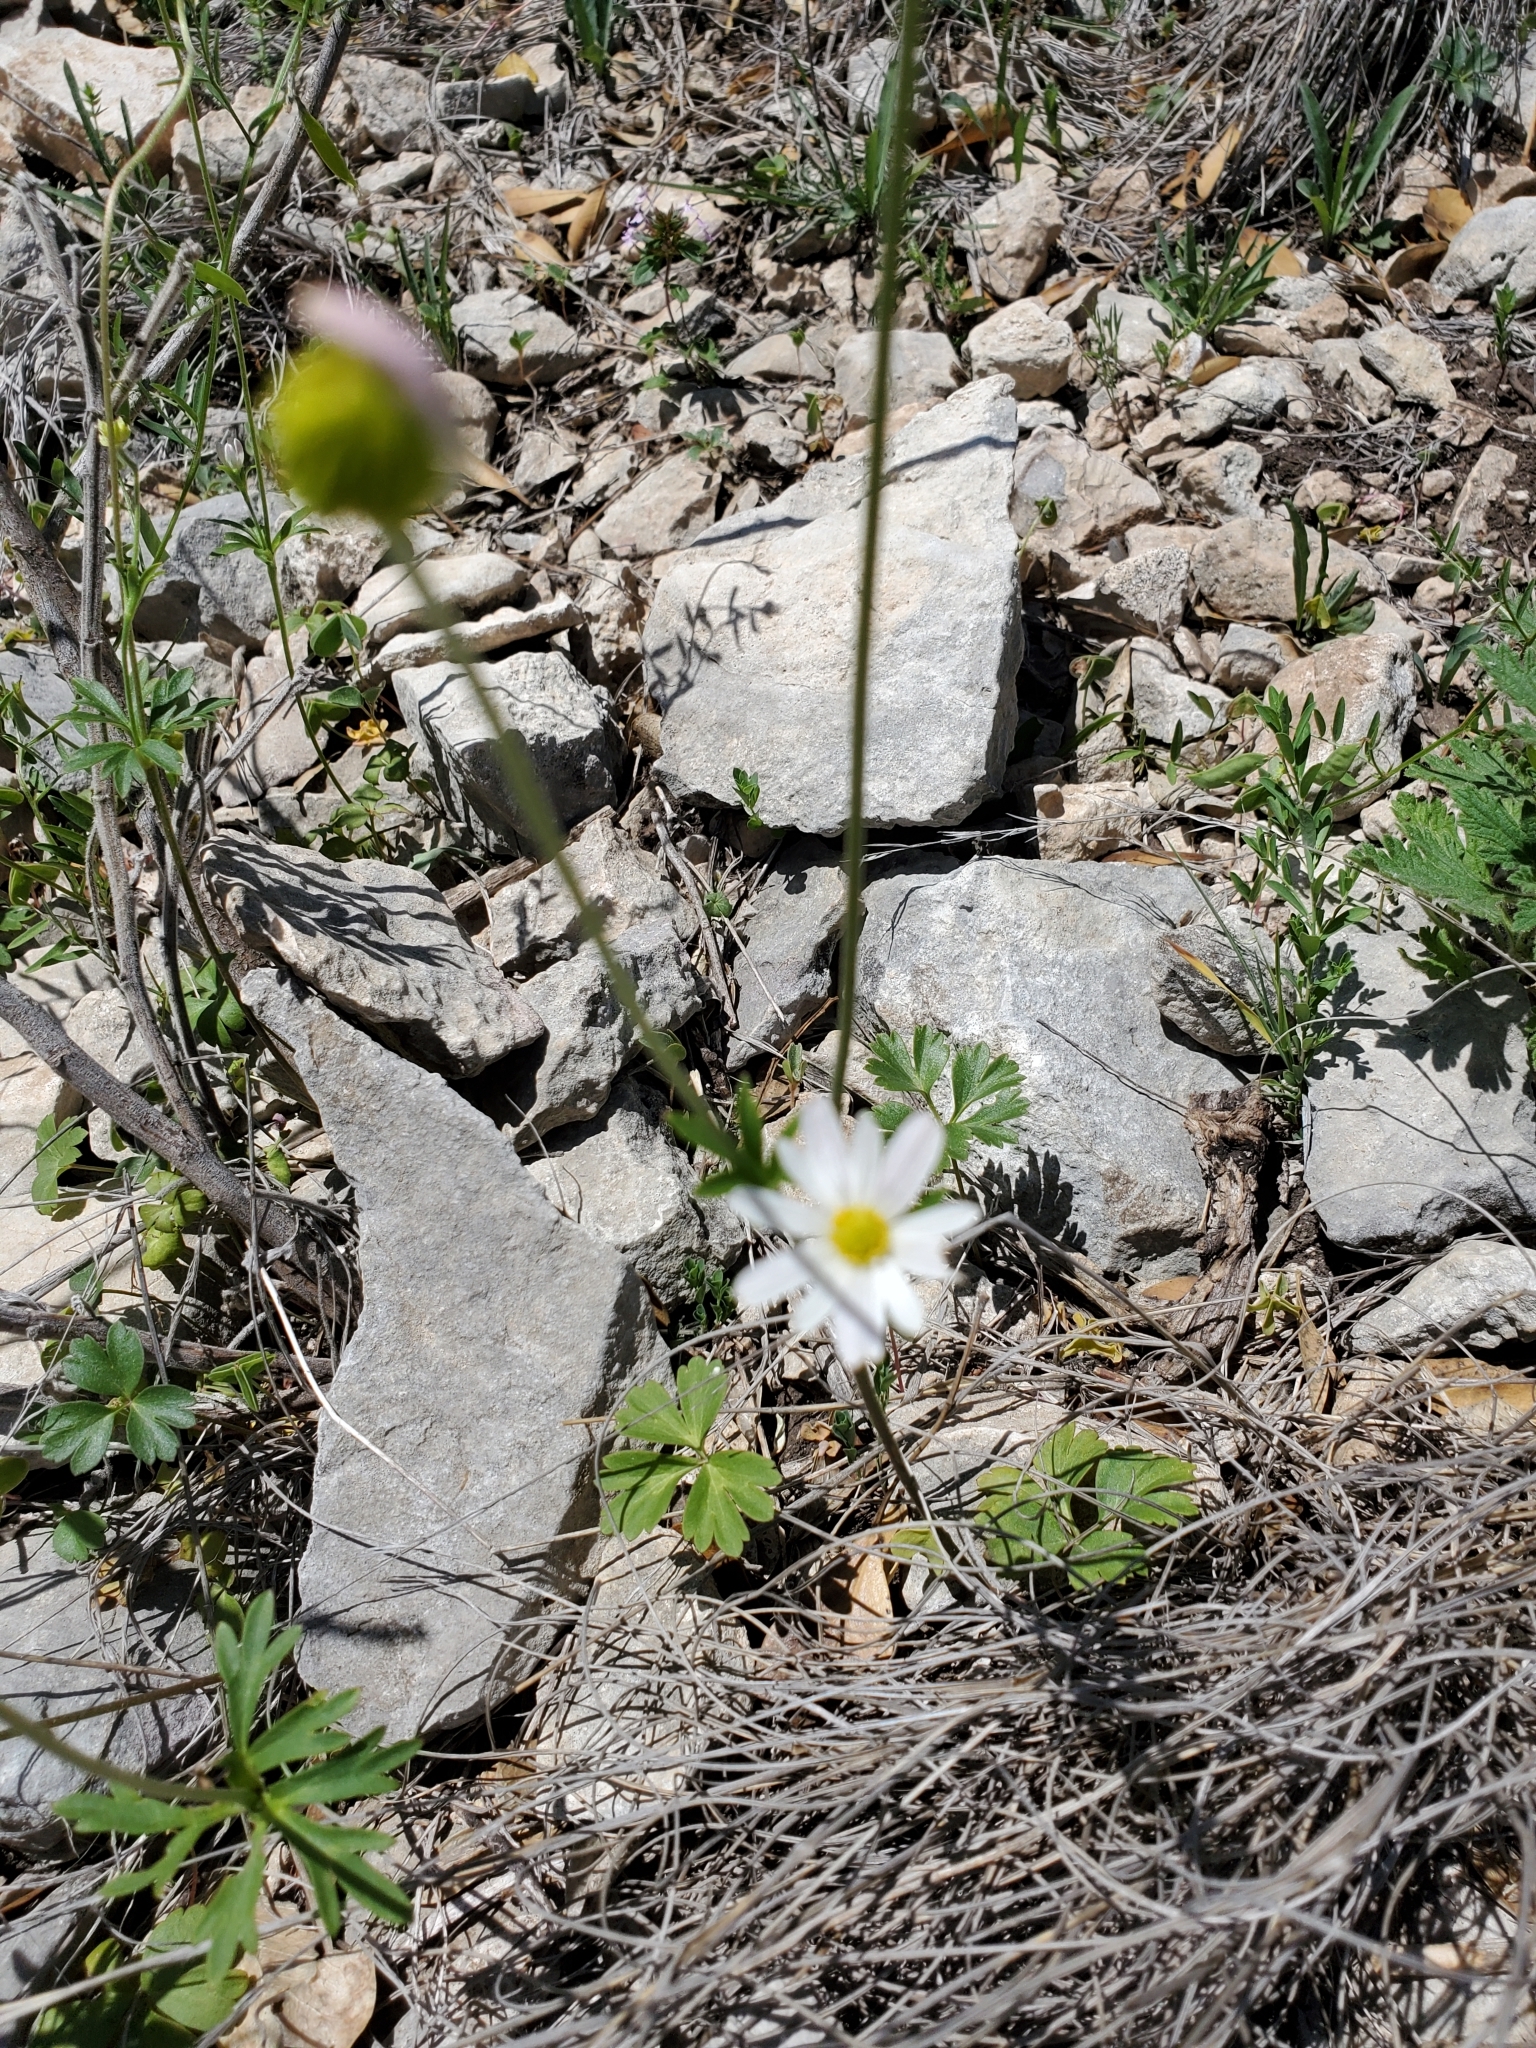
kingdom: Plantae
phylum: Tracheophyta
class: Magnoliopsida
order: Ranunculales
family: Ranunculaceae
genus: Anemone
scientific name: Anemone edwardsiana
